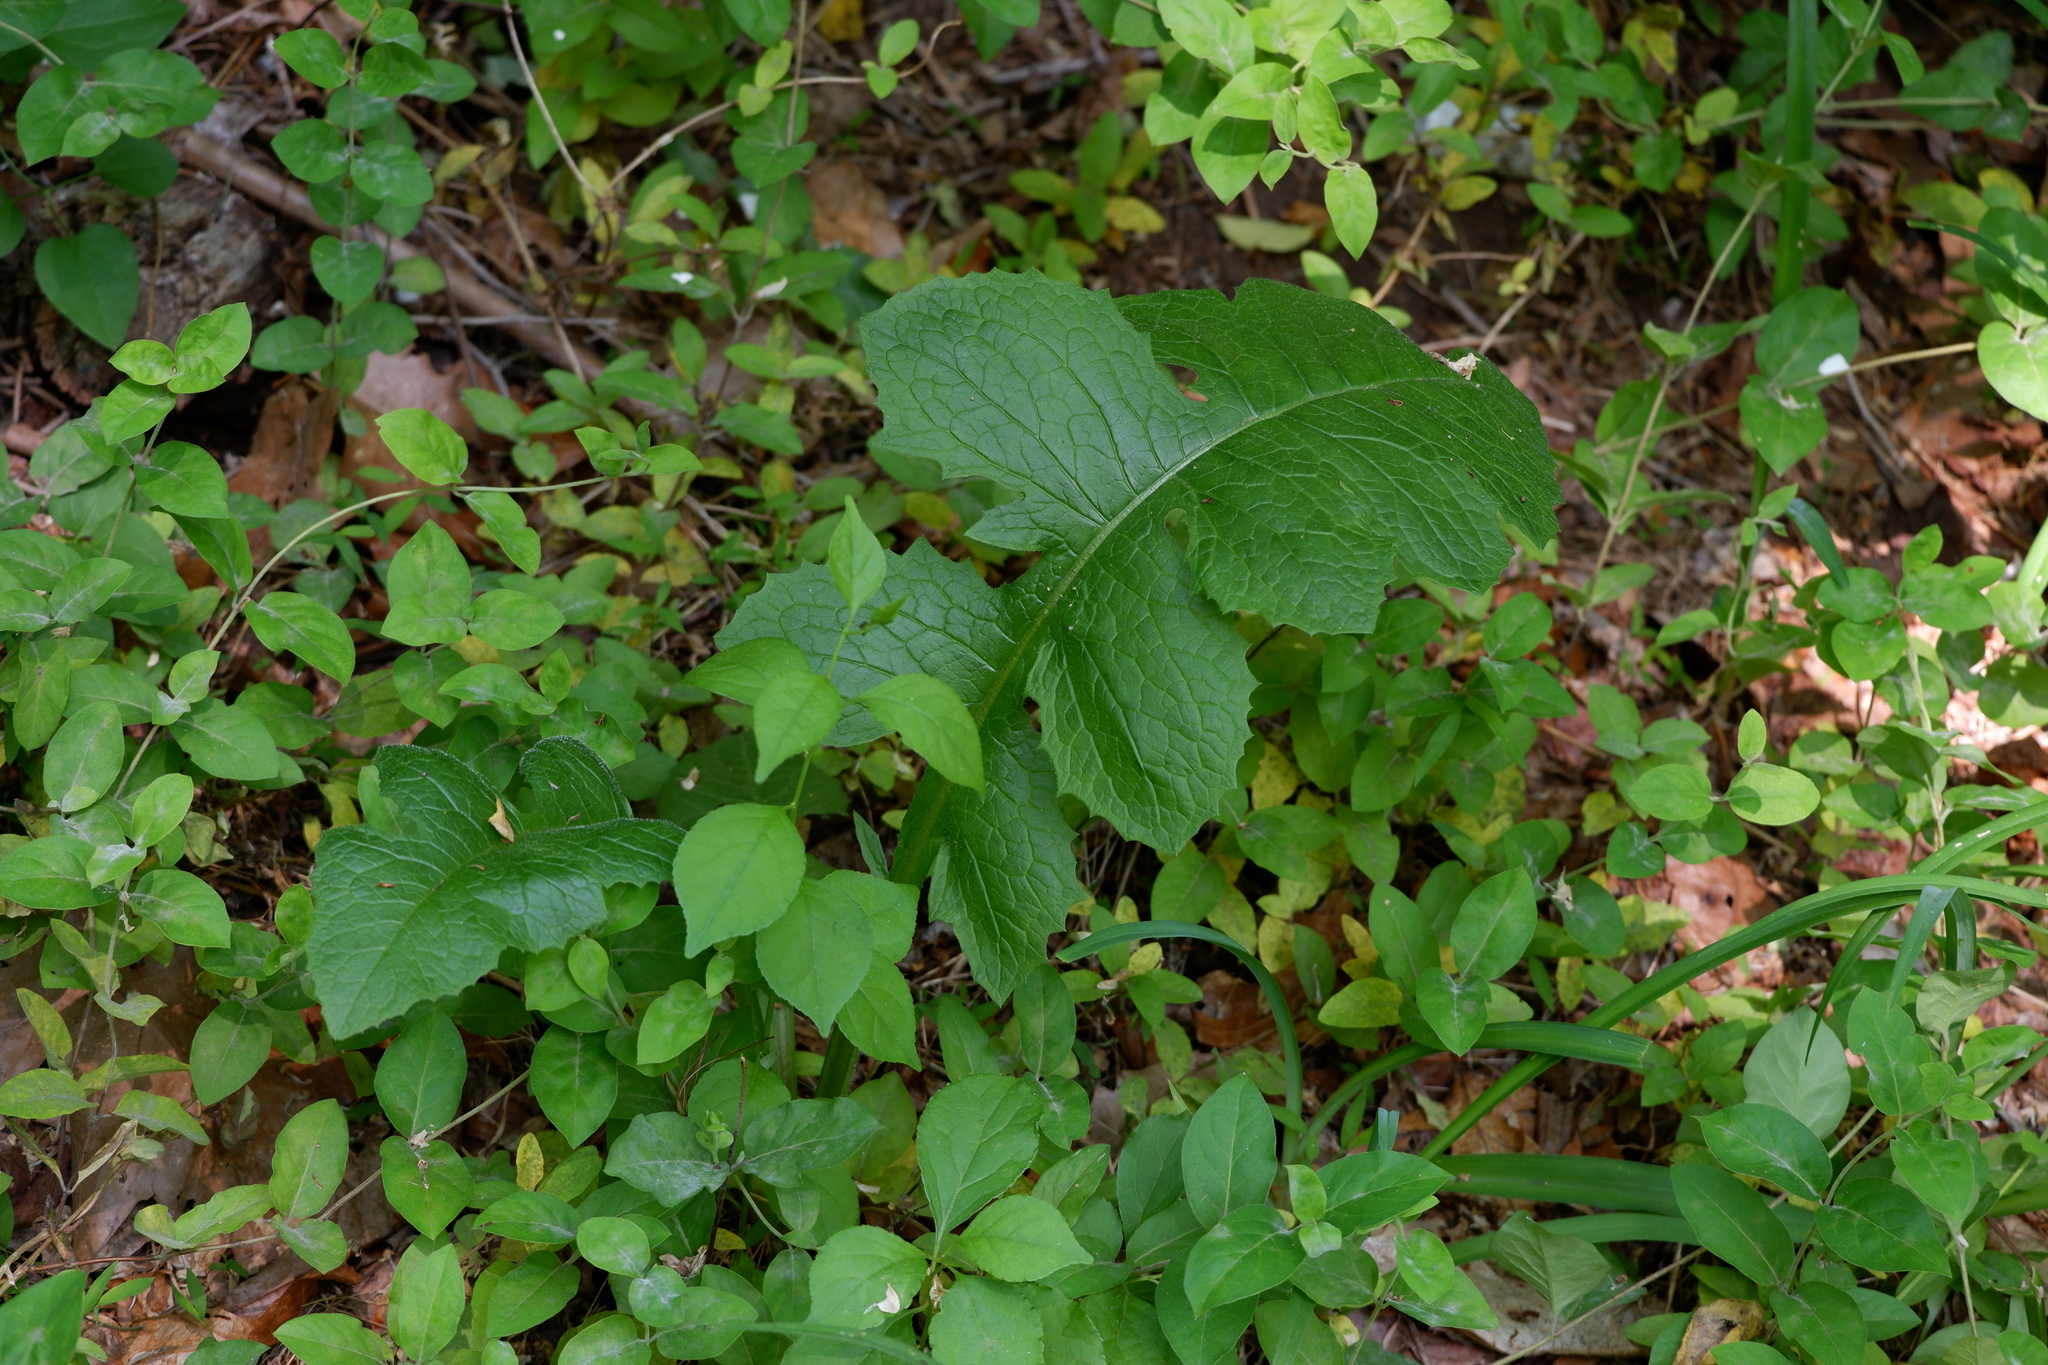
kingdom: Plantae
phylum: Tracheophyta
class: Magnoliopsida
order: Asterales
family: Asteraceae
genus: Lactuca
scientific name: Lactuca biennis
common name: Blue wood lettuce
